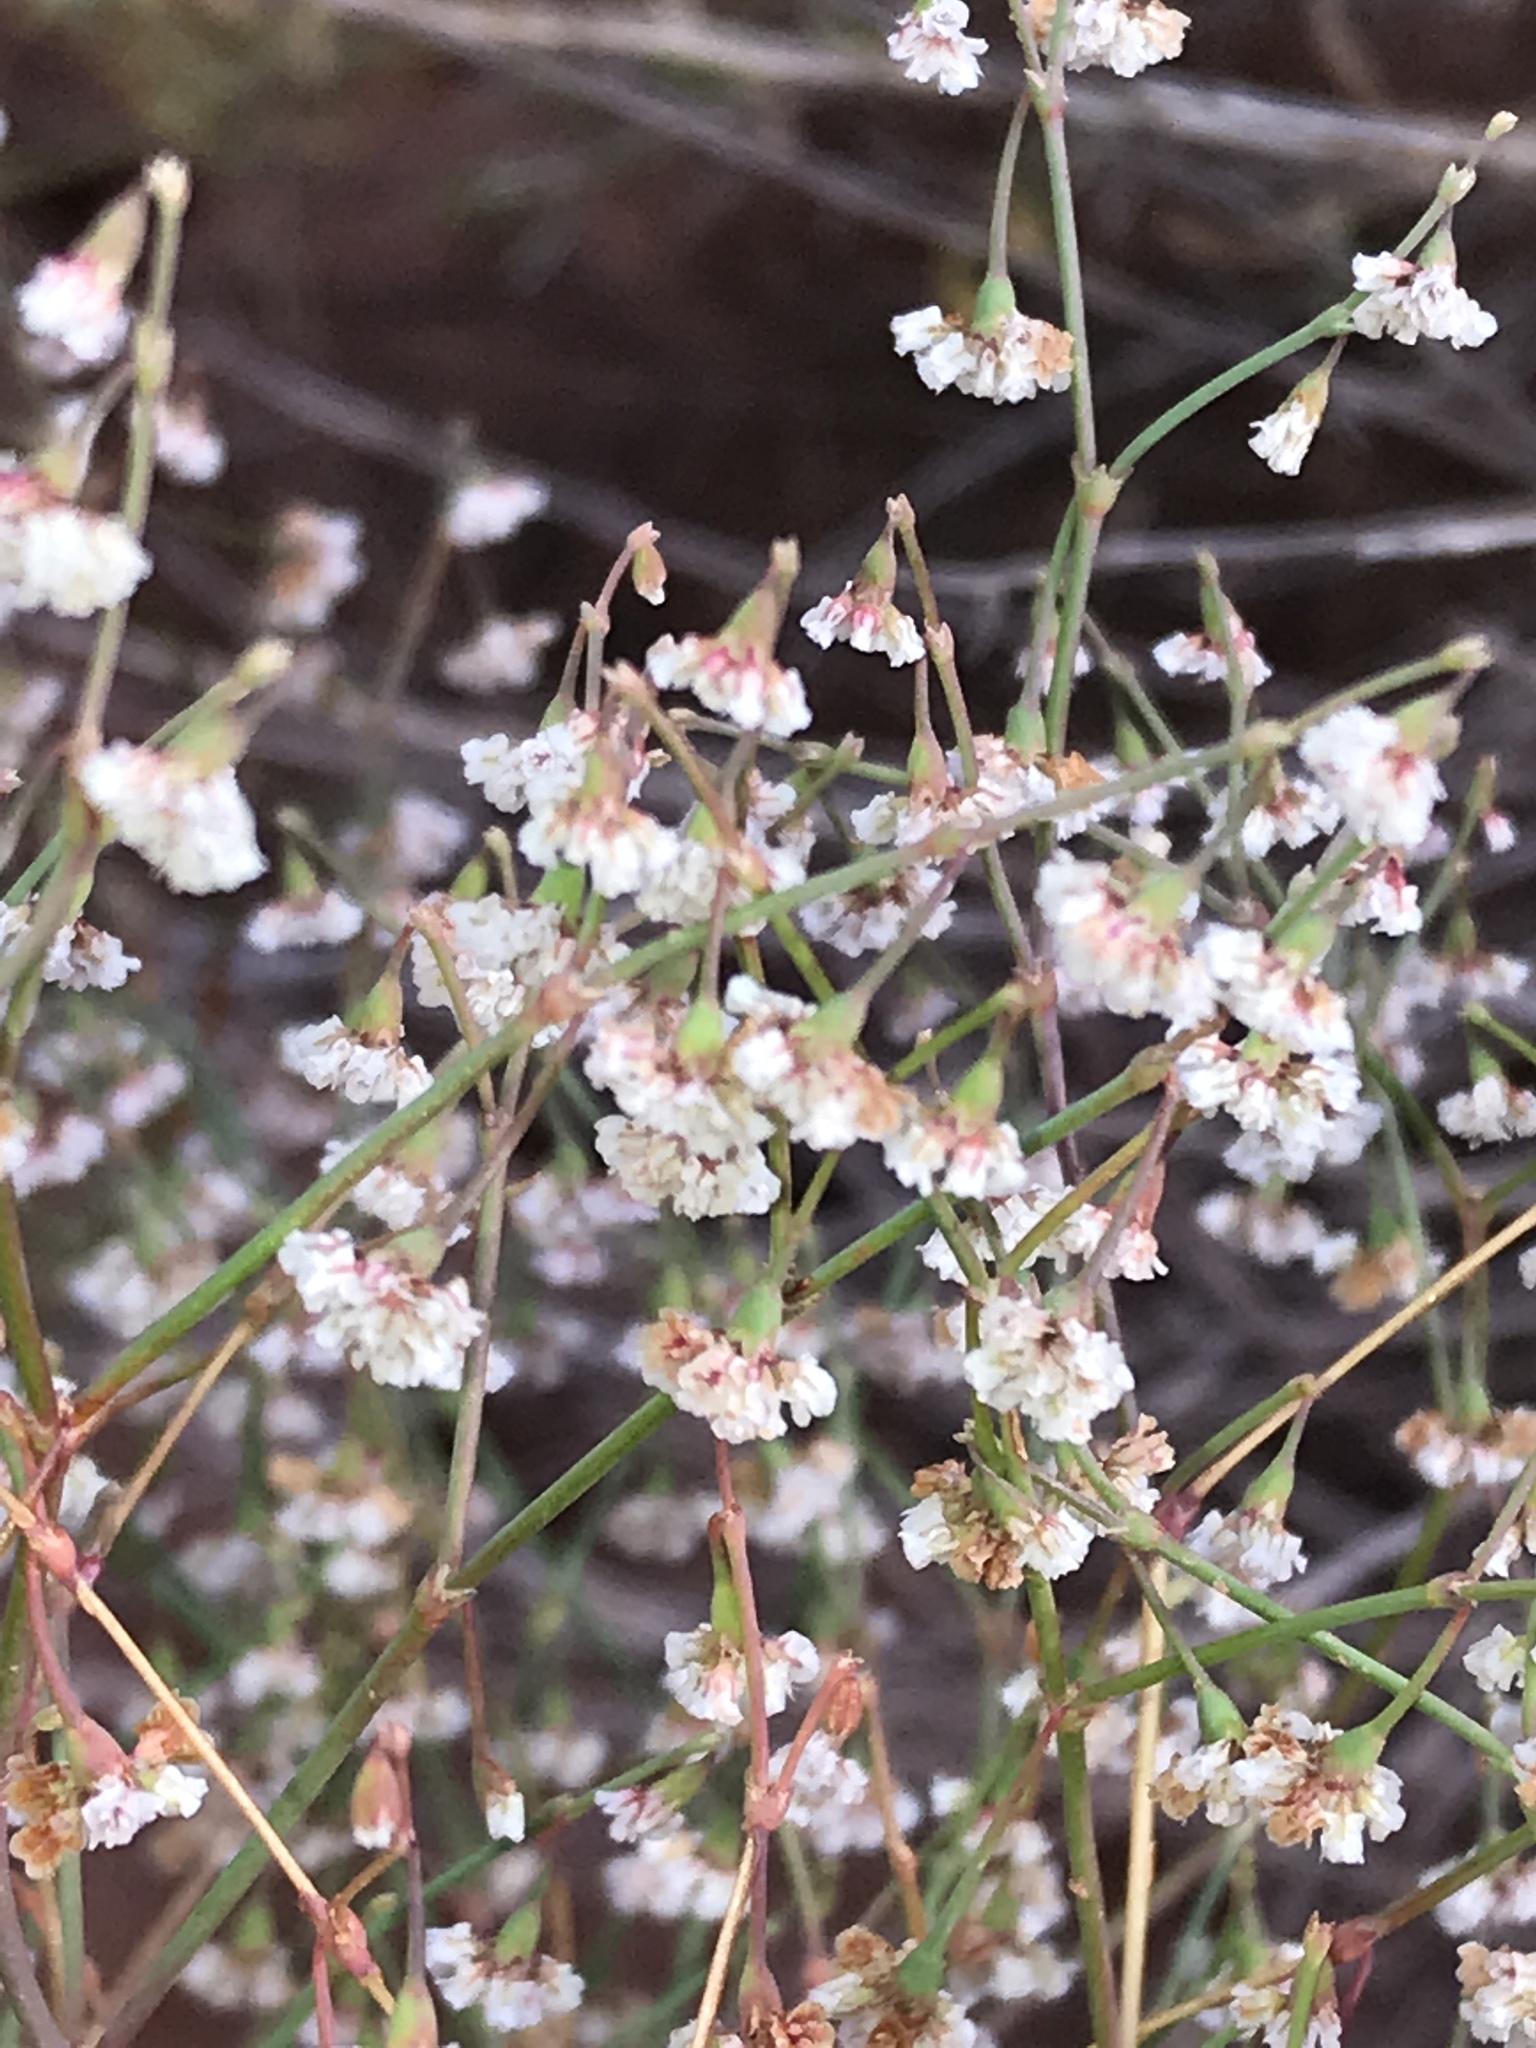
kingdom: Plantae
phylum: Tracheophyta
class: Magnoliopsida
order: Caryophyllales
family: Polygonaceae
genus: Eriogonum
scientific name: Eriogonum cernuum
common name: Nodding wild buckwheat
